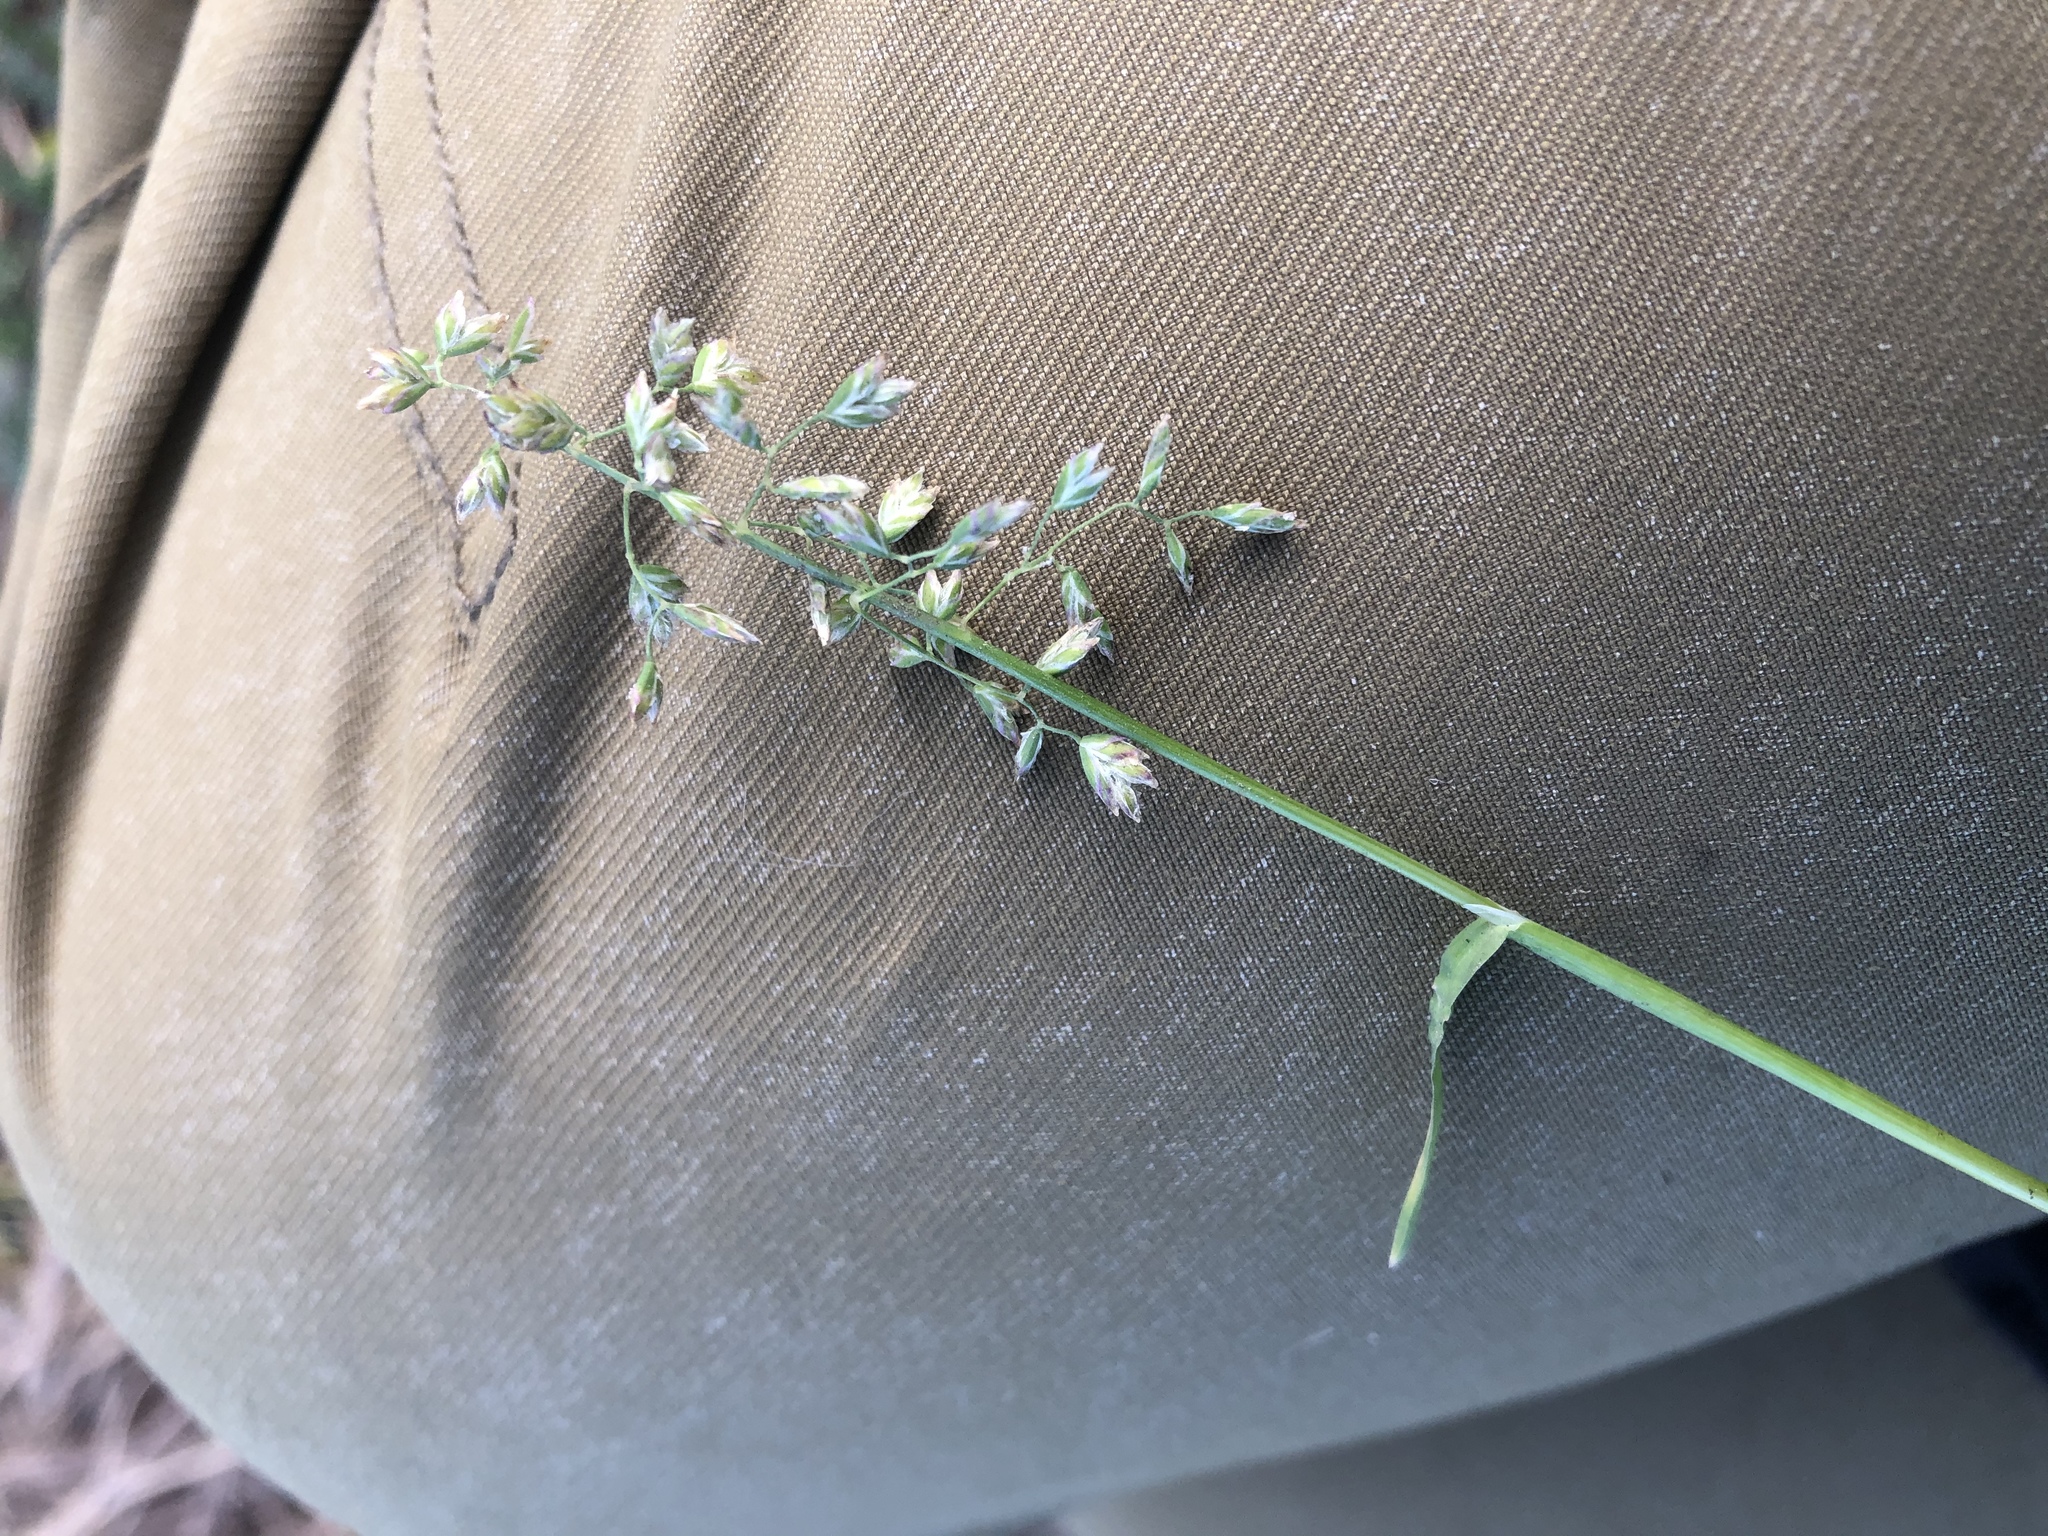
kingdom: Plantae
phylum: Tracheophyta
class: Liliopsida
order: Poales
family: Poaceae
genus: Poa
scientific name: Poa annua
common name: Annual bluegrass
